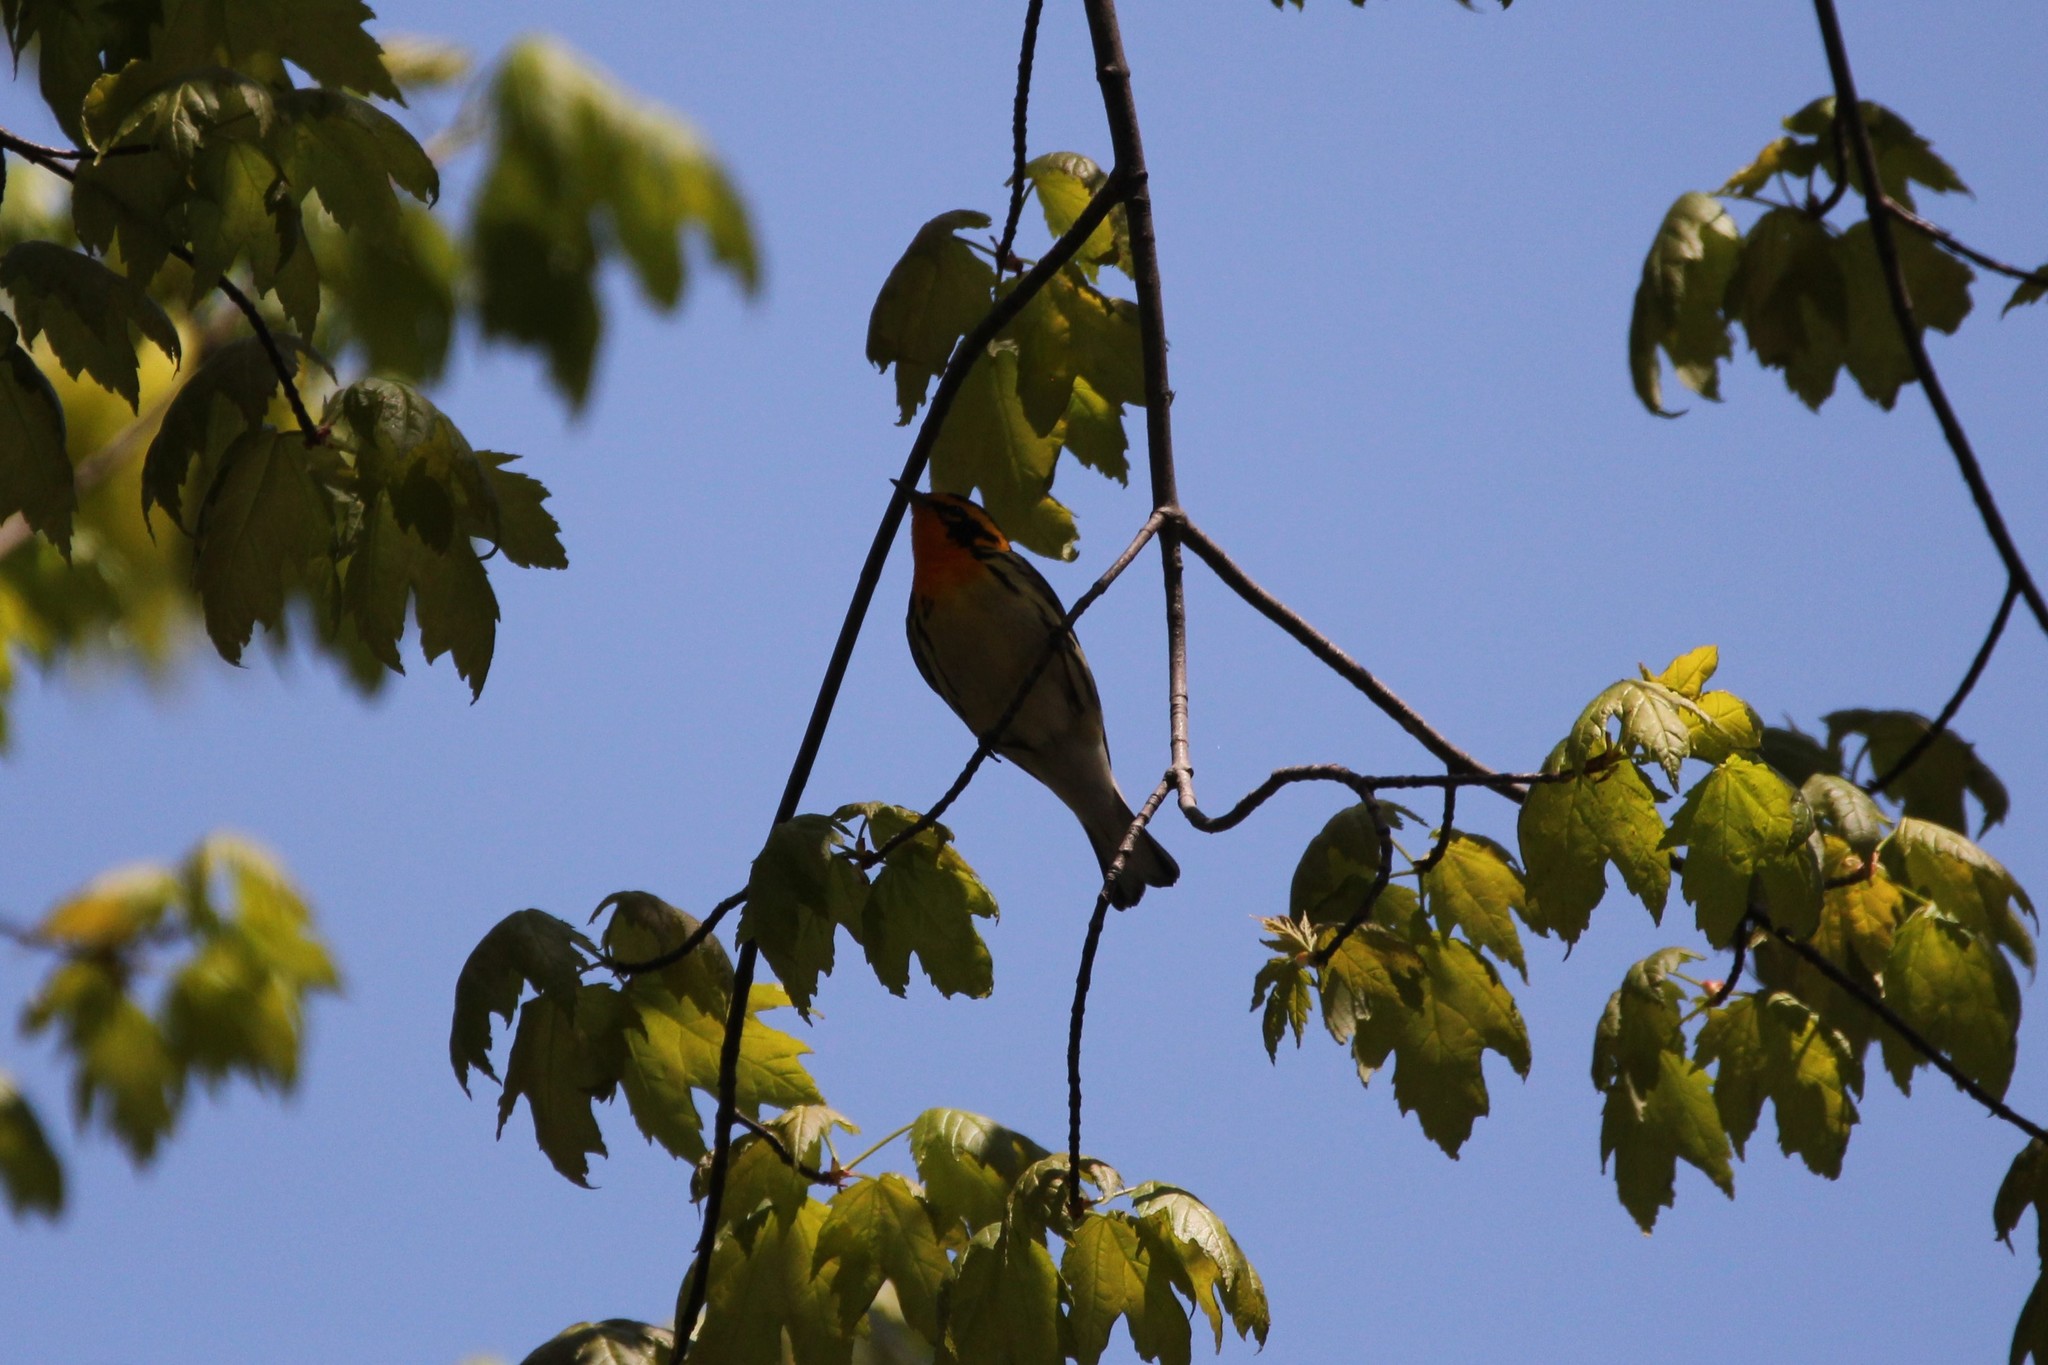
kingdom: Animalia
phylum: Chordata
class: Aves
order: Passeriformes
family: Parulidae
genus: Setophaga
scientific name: Setophaga fusca
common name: Blackburnian warbler
